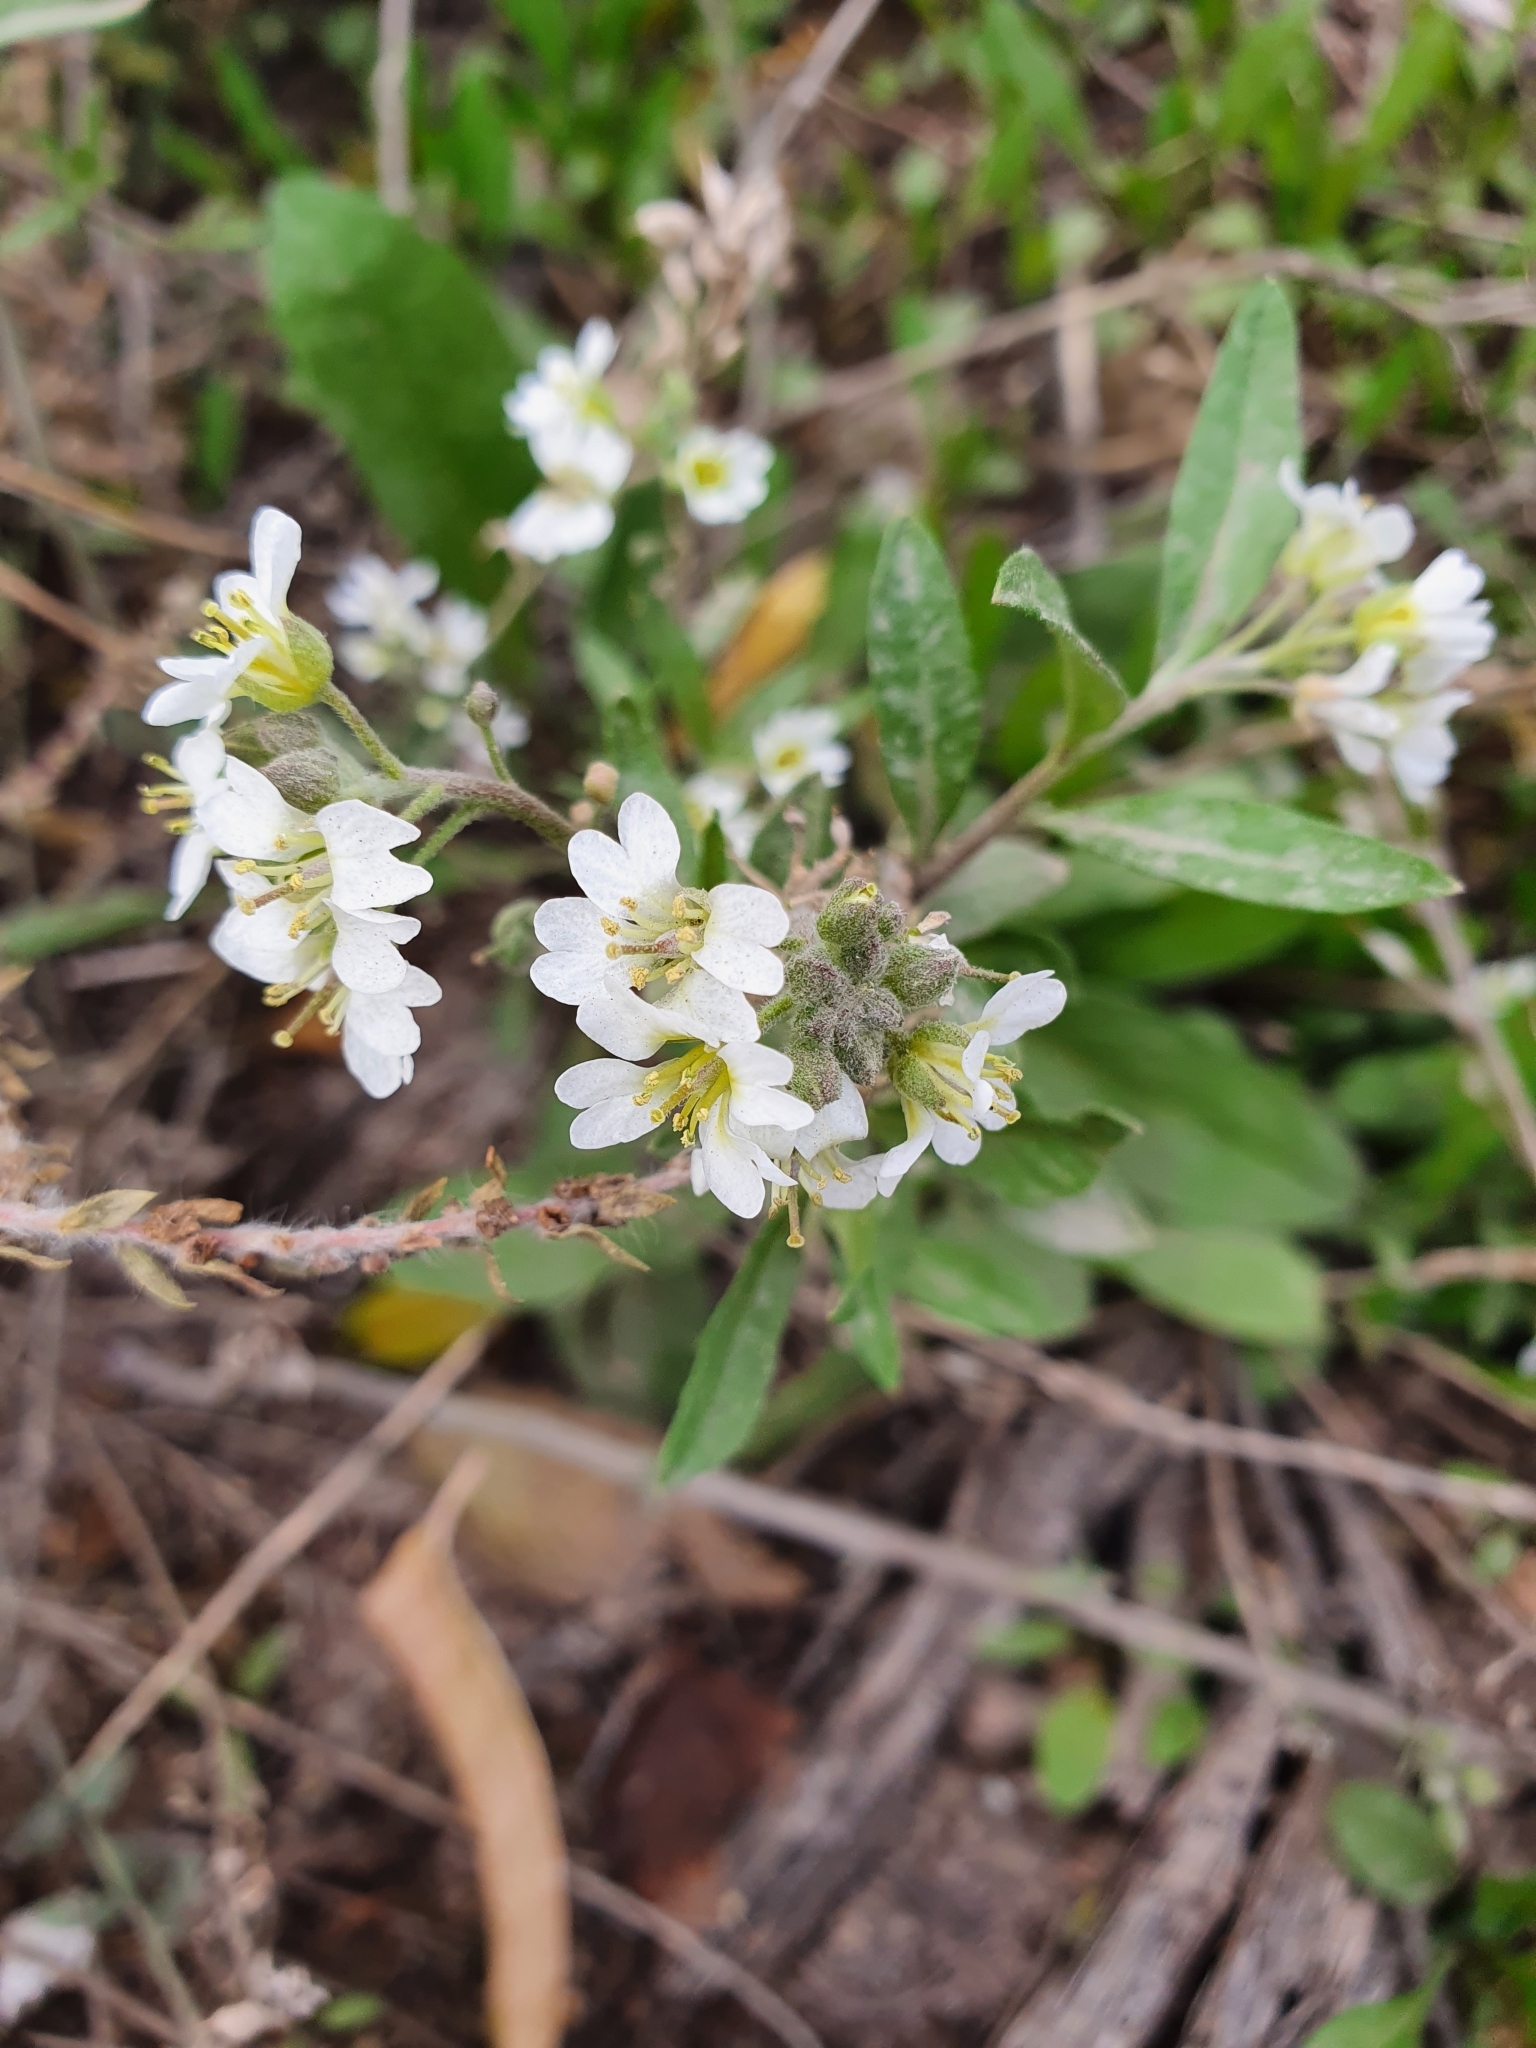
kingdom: Plantae
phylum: Tracheophyta
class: Magnoliopsida
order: Brassicales
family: Brassicaceae
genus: Berteroa
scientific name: Berteroa incana
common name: Hoary alison
